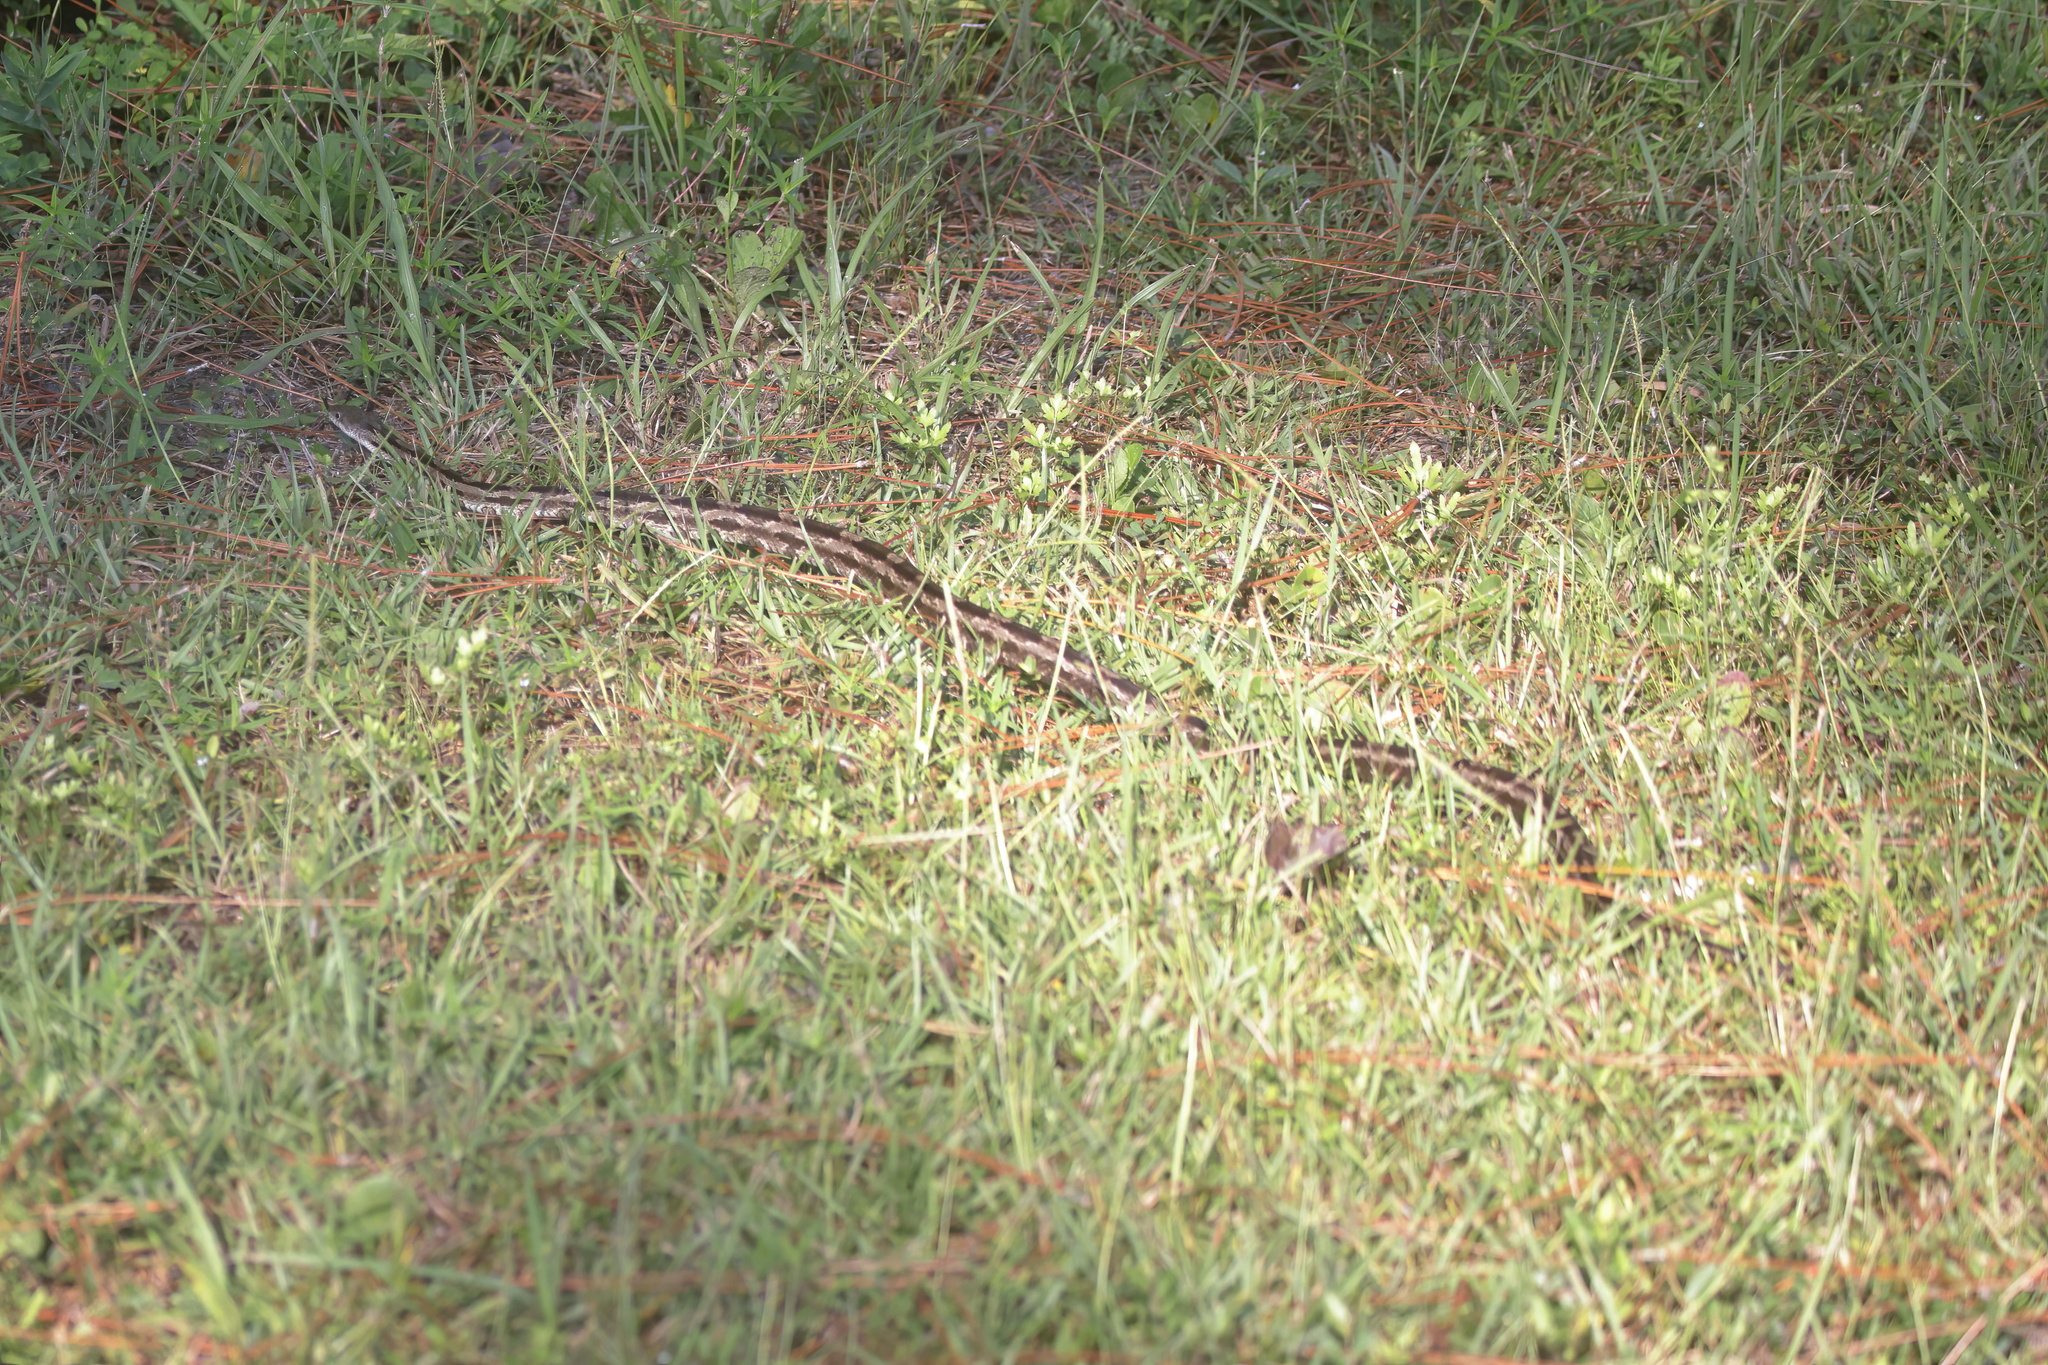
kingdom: Animalia
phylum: Chordata
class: Squamata
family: Colubridae
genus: Pantherophis
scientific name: Pantherophis spiloides
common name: Gray rat snake
